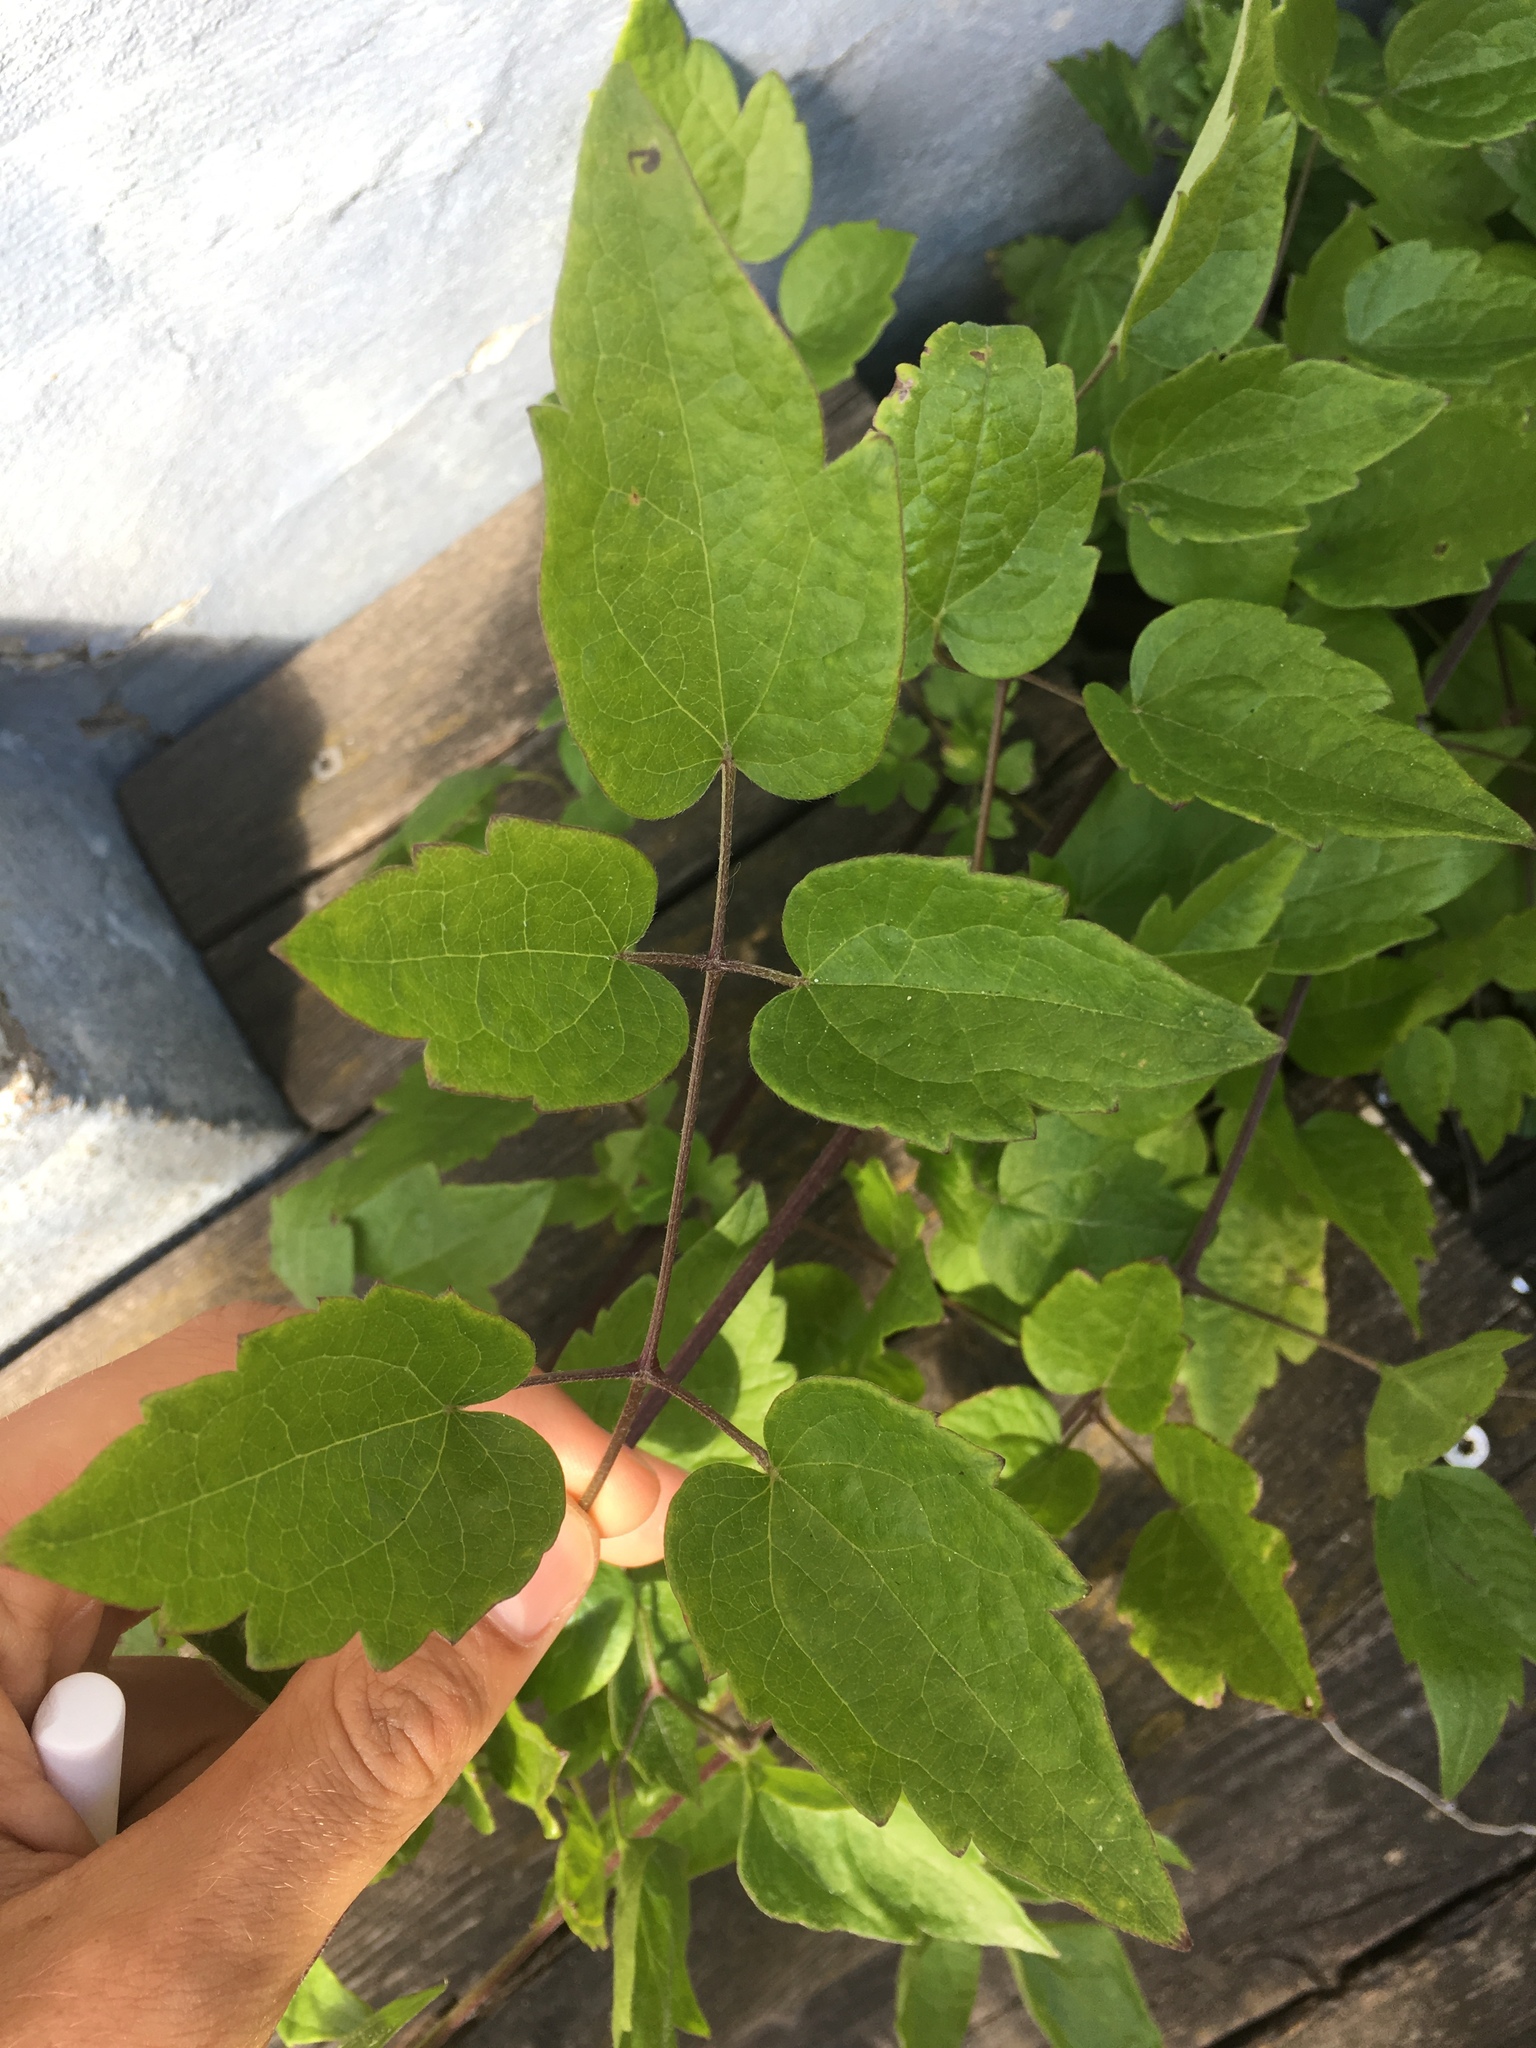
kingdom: Plantae
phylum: Tracheophyta
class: Magnoliopsida
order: Ranunculales
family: Ranunculaceae
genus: Clematis
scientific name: Clematis vitalba
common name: Evergreen clematis
